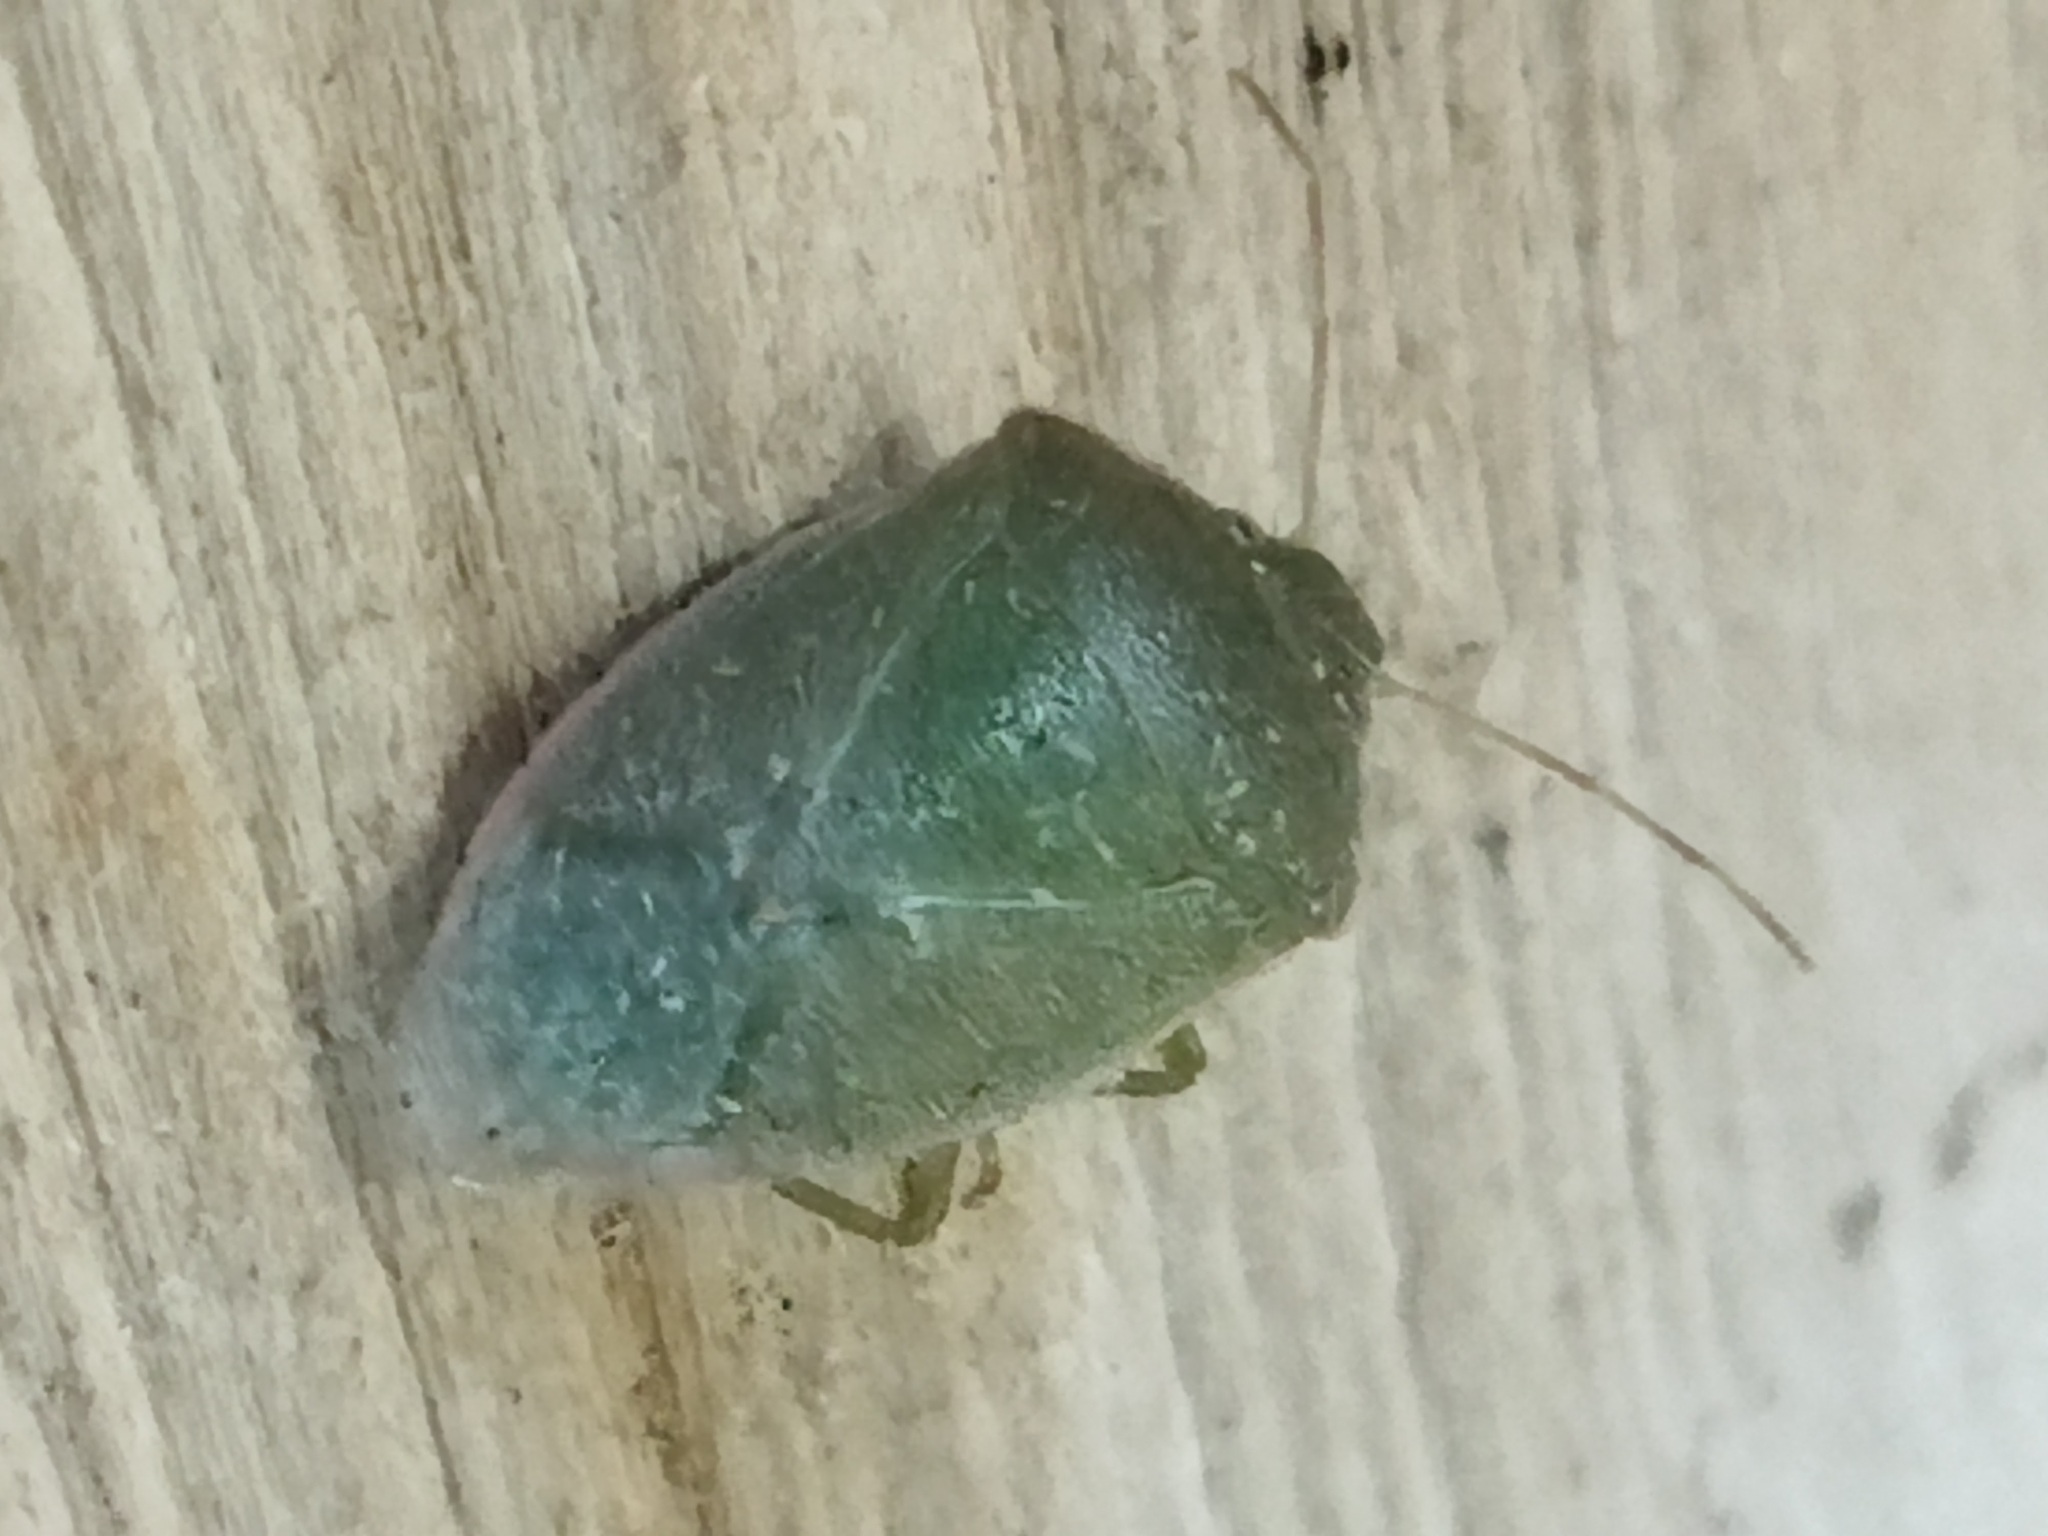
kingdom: Animalia
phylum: Arthropoda
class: Insecta
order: Hemiptera
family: Pentatomidae
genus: Acrosternum
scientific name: Acrosternum heegeri
